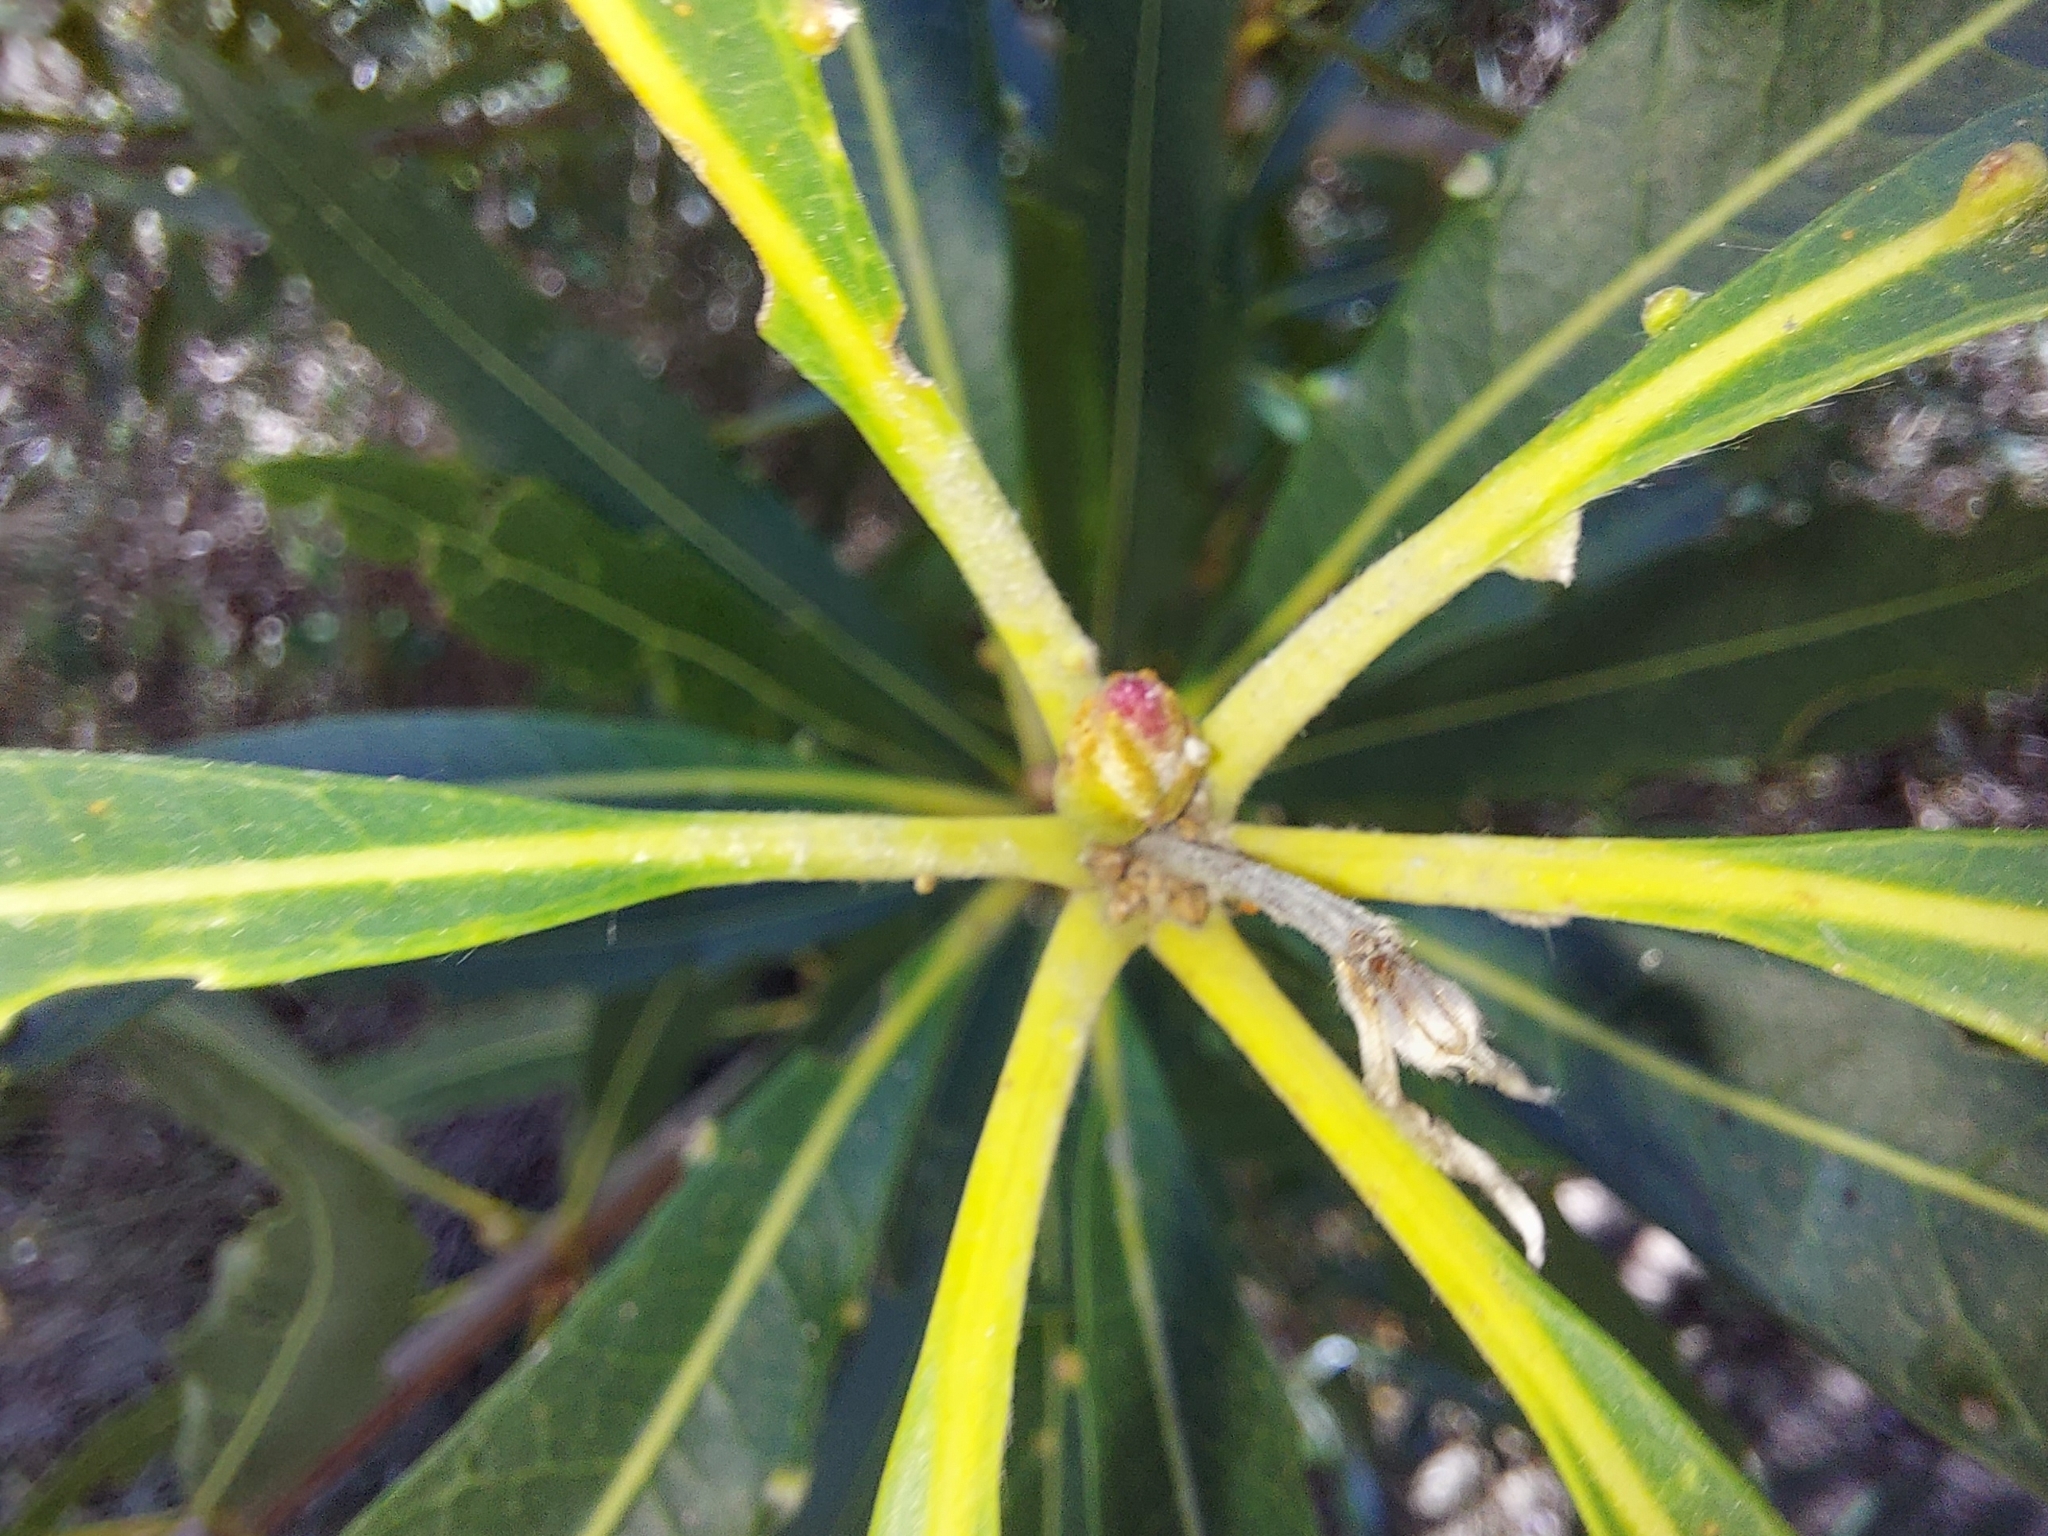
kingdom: Plantae
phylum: Tracheophyta
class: Magnoliopsida
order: Proteales
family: Proteaceae
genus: Brabejum
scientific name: Brabejum stellatifolium
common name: Wild almond
